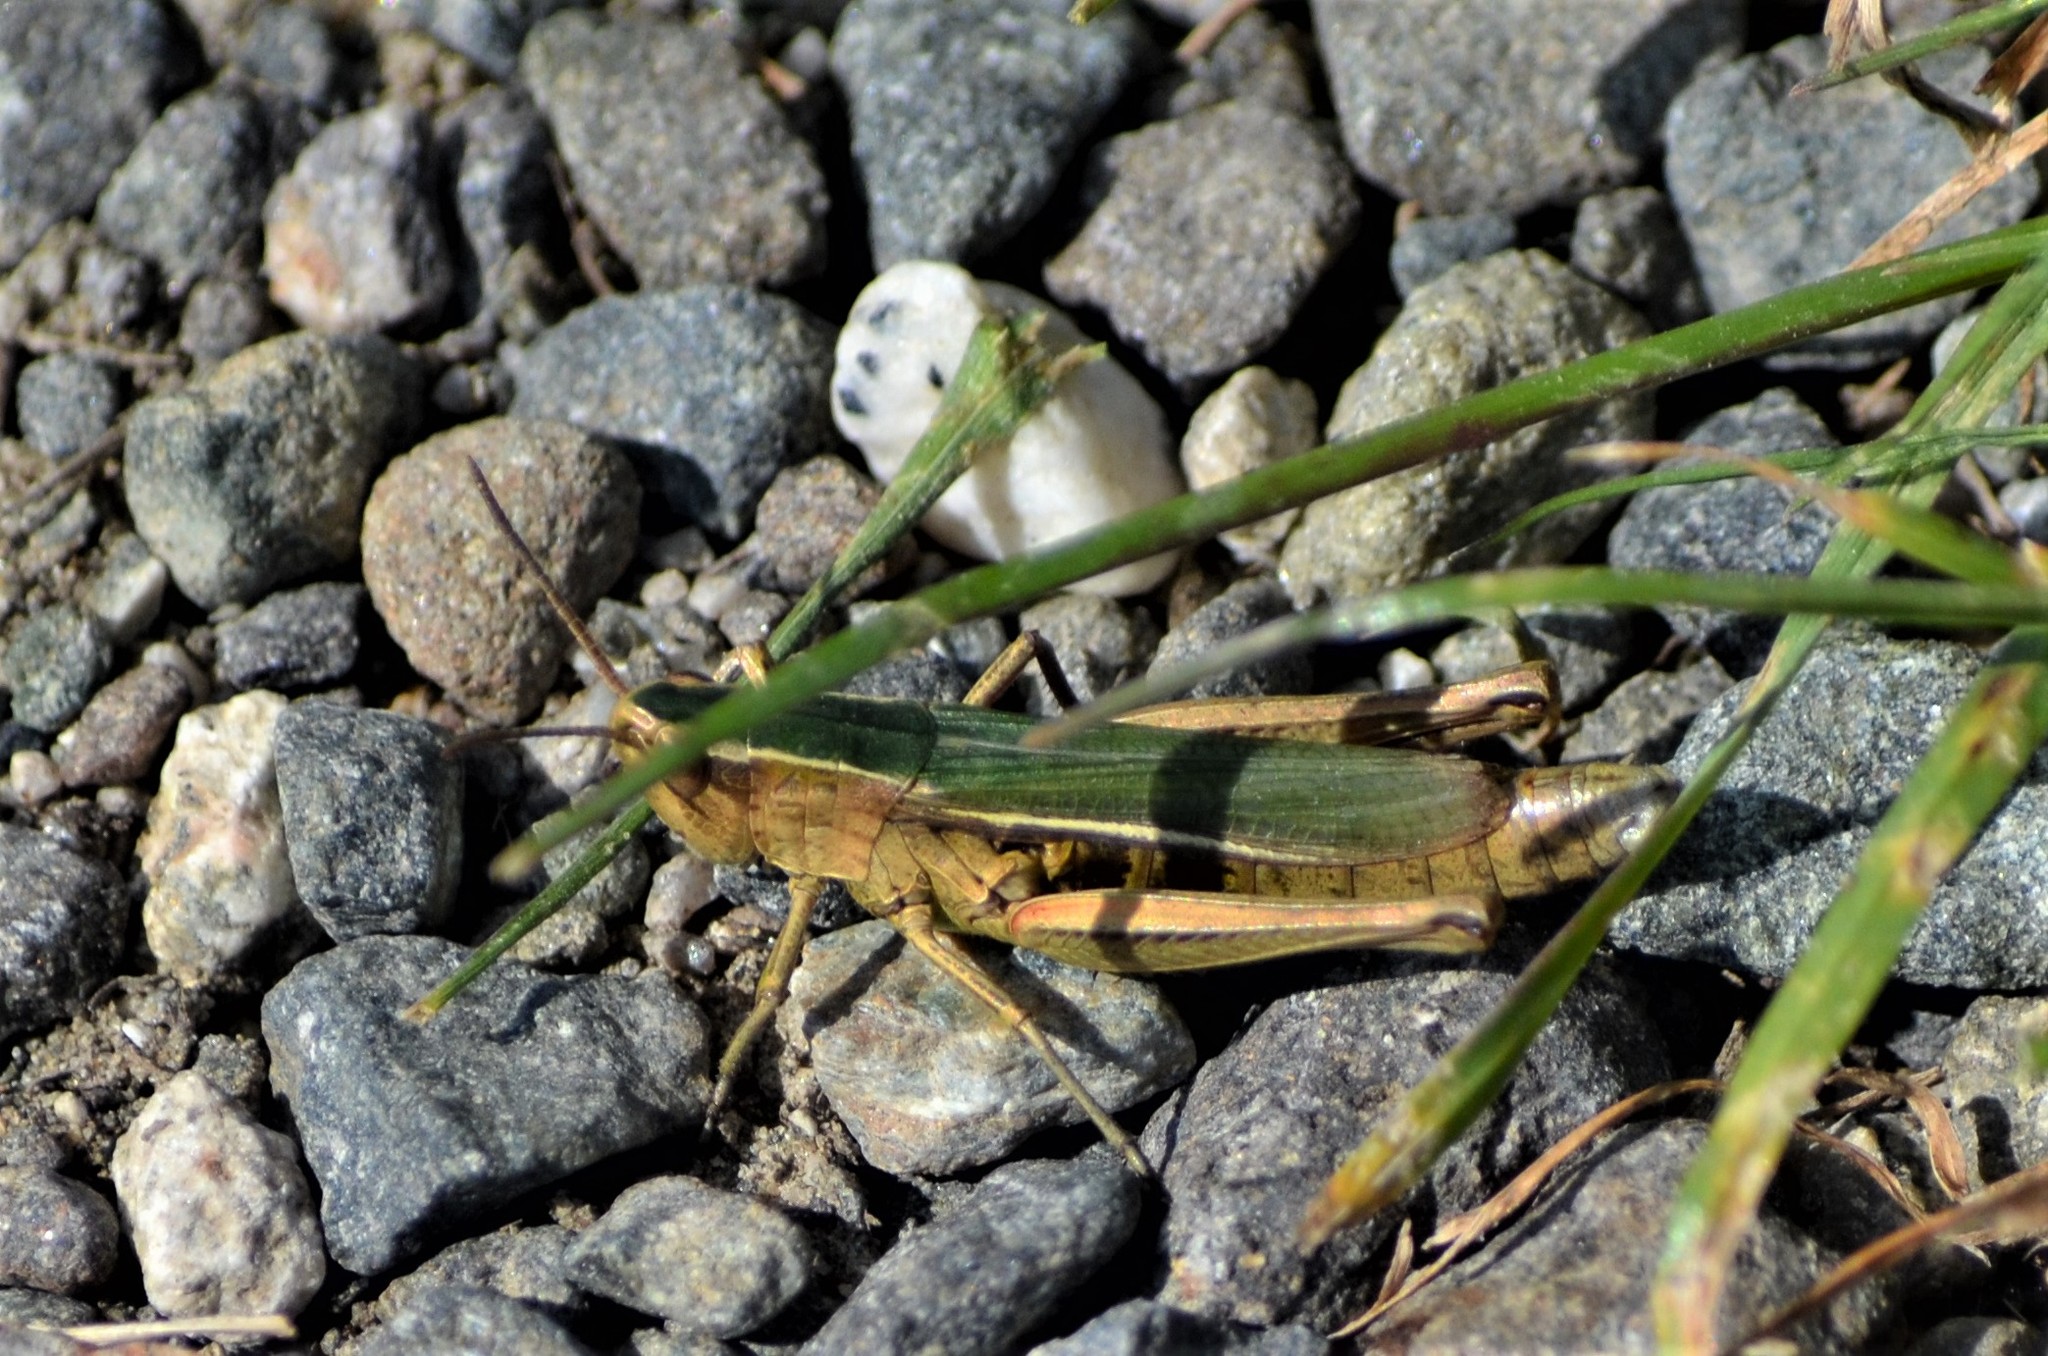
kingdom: Animalia
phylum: Arthropoda
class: Insecta
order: Orthoptera
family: Acrididae
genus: Chorthippus
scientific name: Chorthippus albomarginatus
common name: Lesser marsh grasshopper
